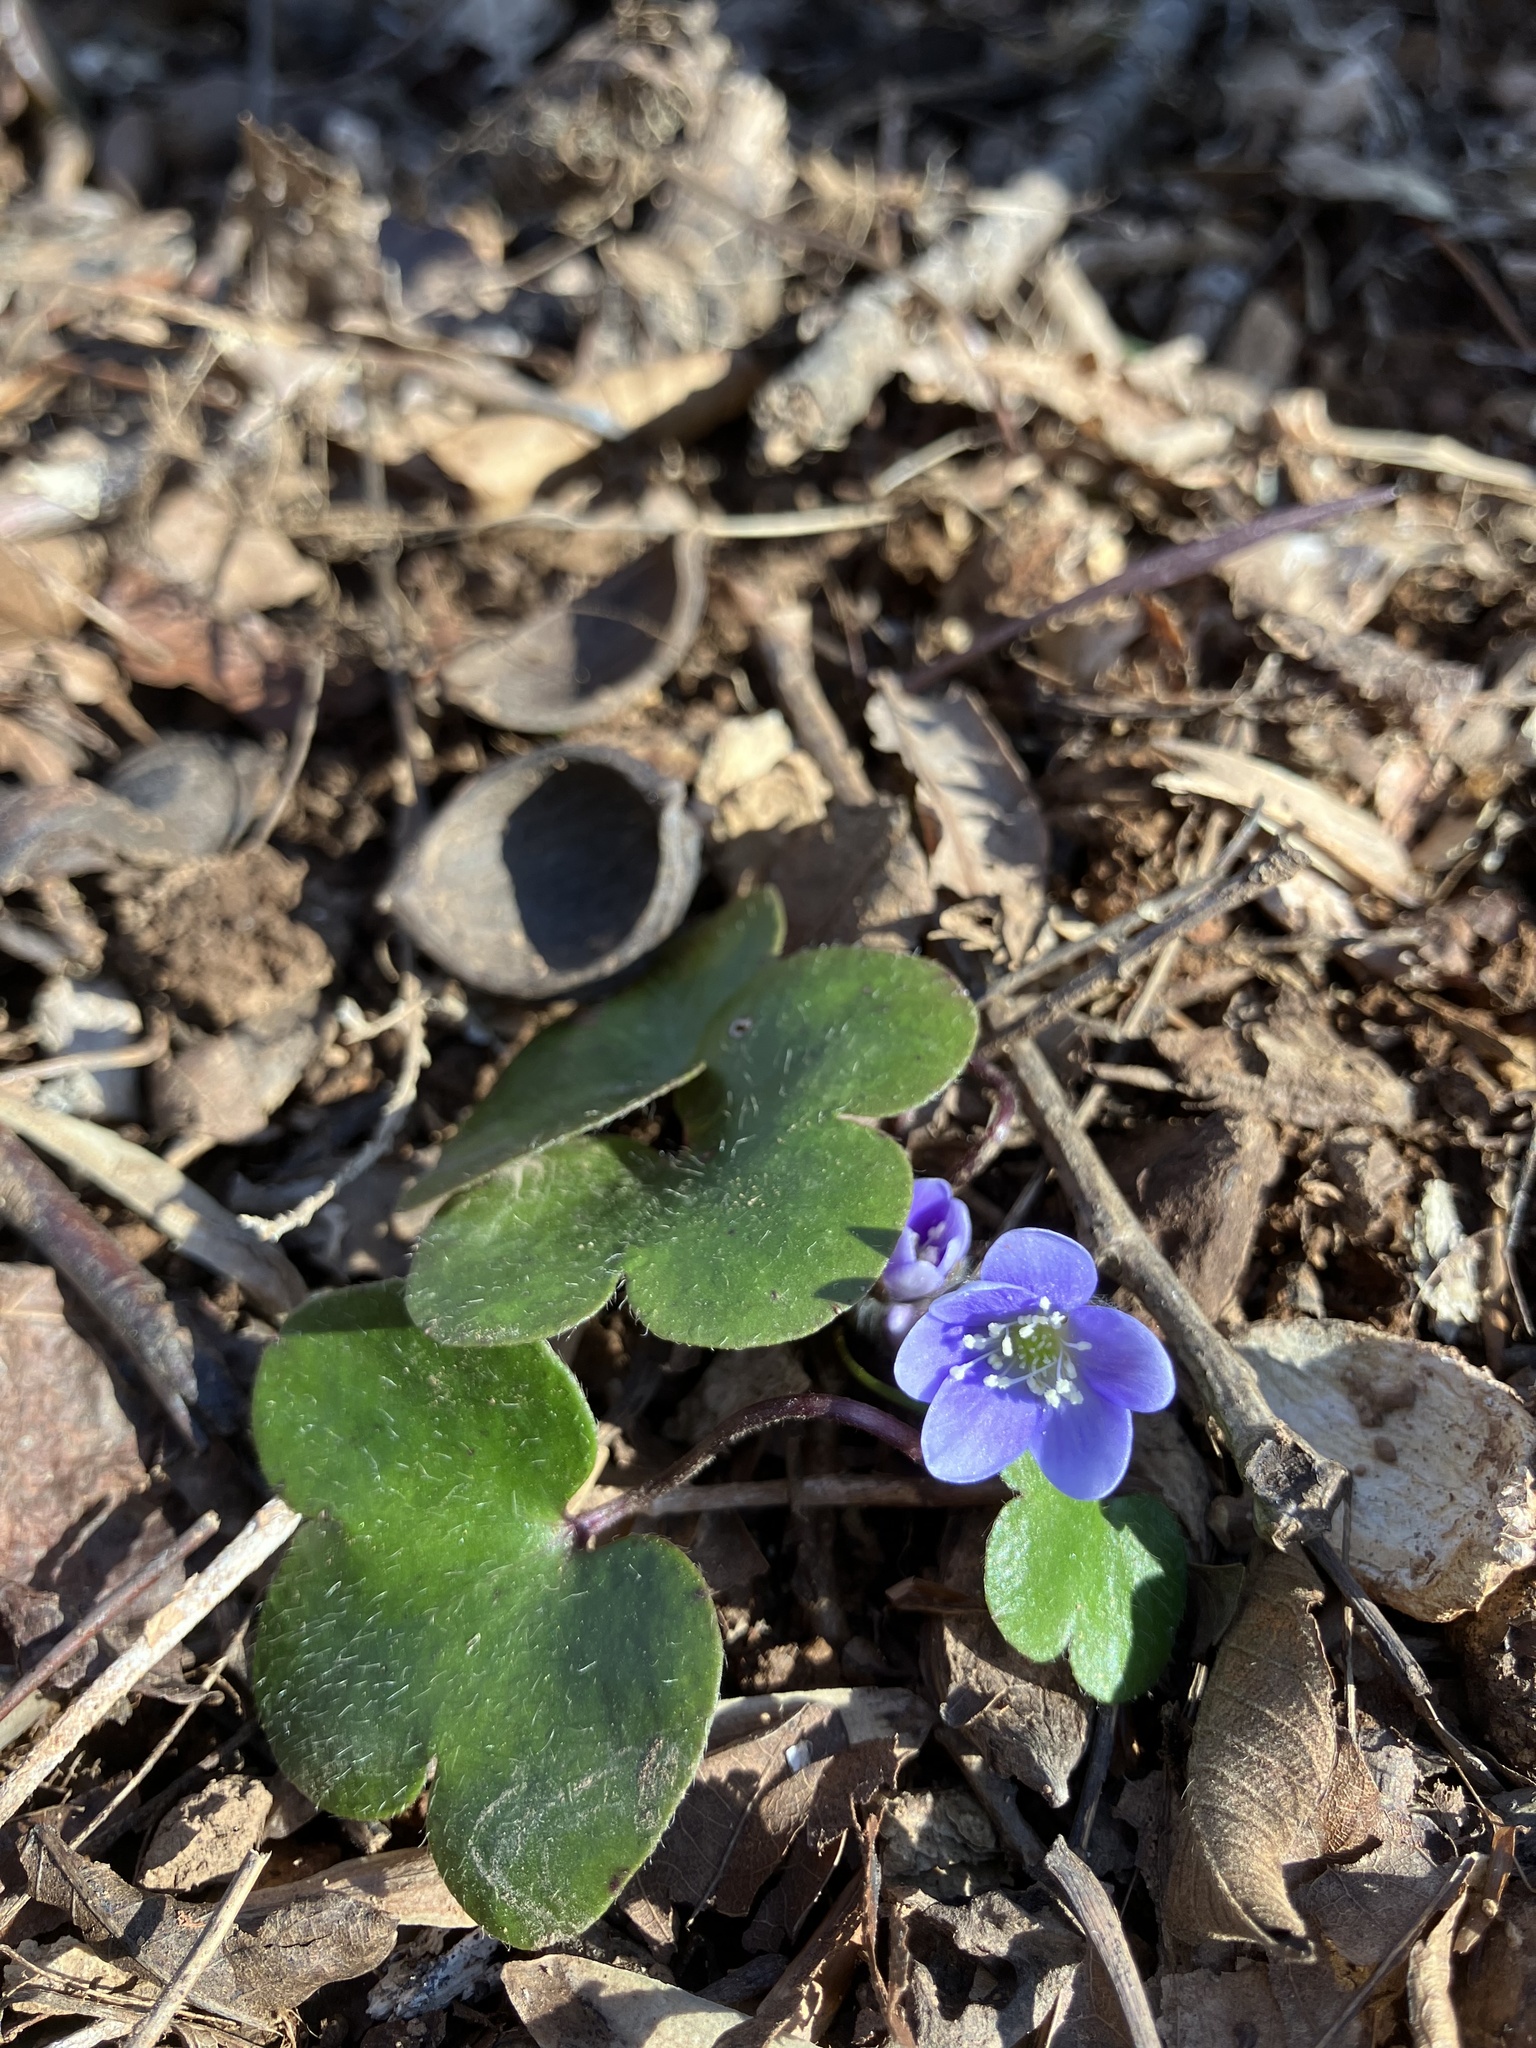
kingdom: Plantae
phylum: Tracheophyta
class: Magnoliopsida
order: Ranunculales
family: Ranunculaceae
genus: Hepatica
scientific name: Hepatica americana
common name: American hepatica
